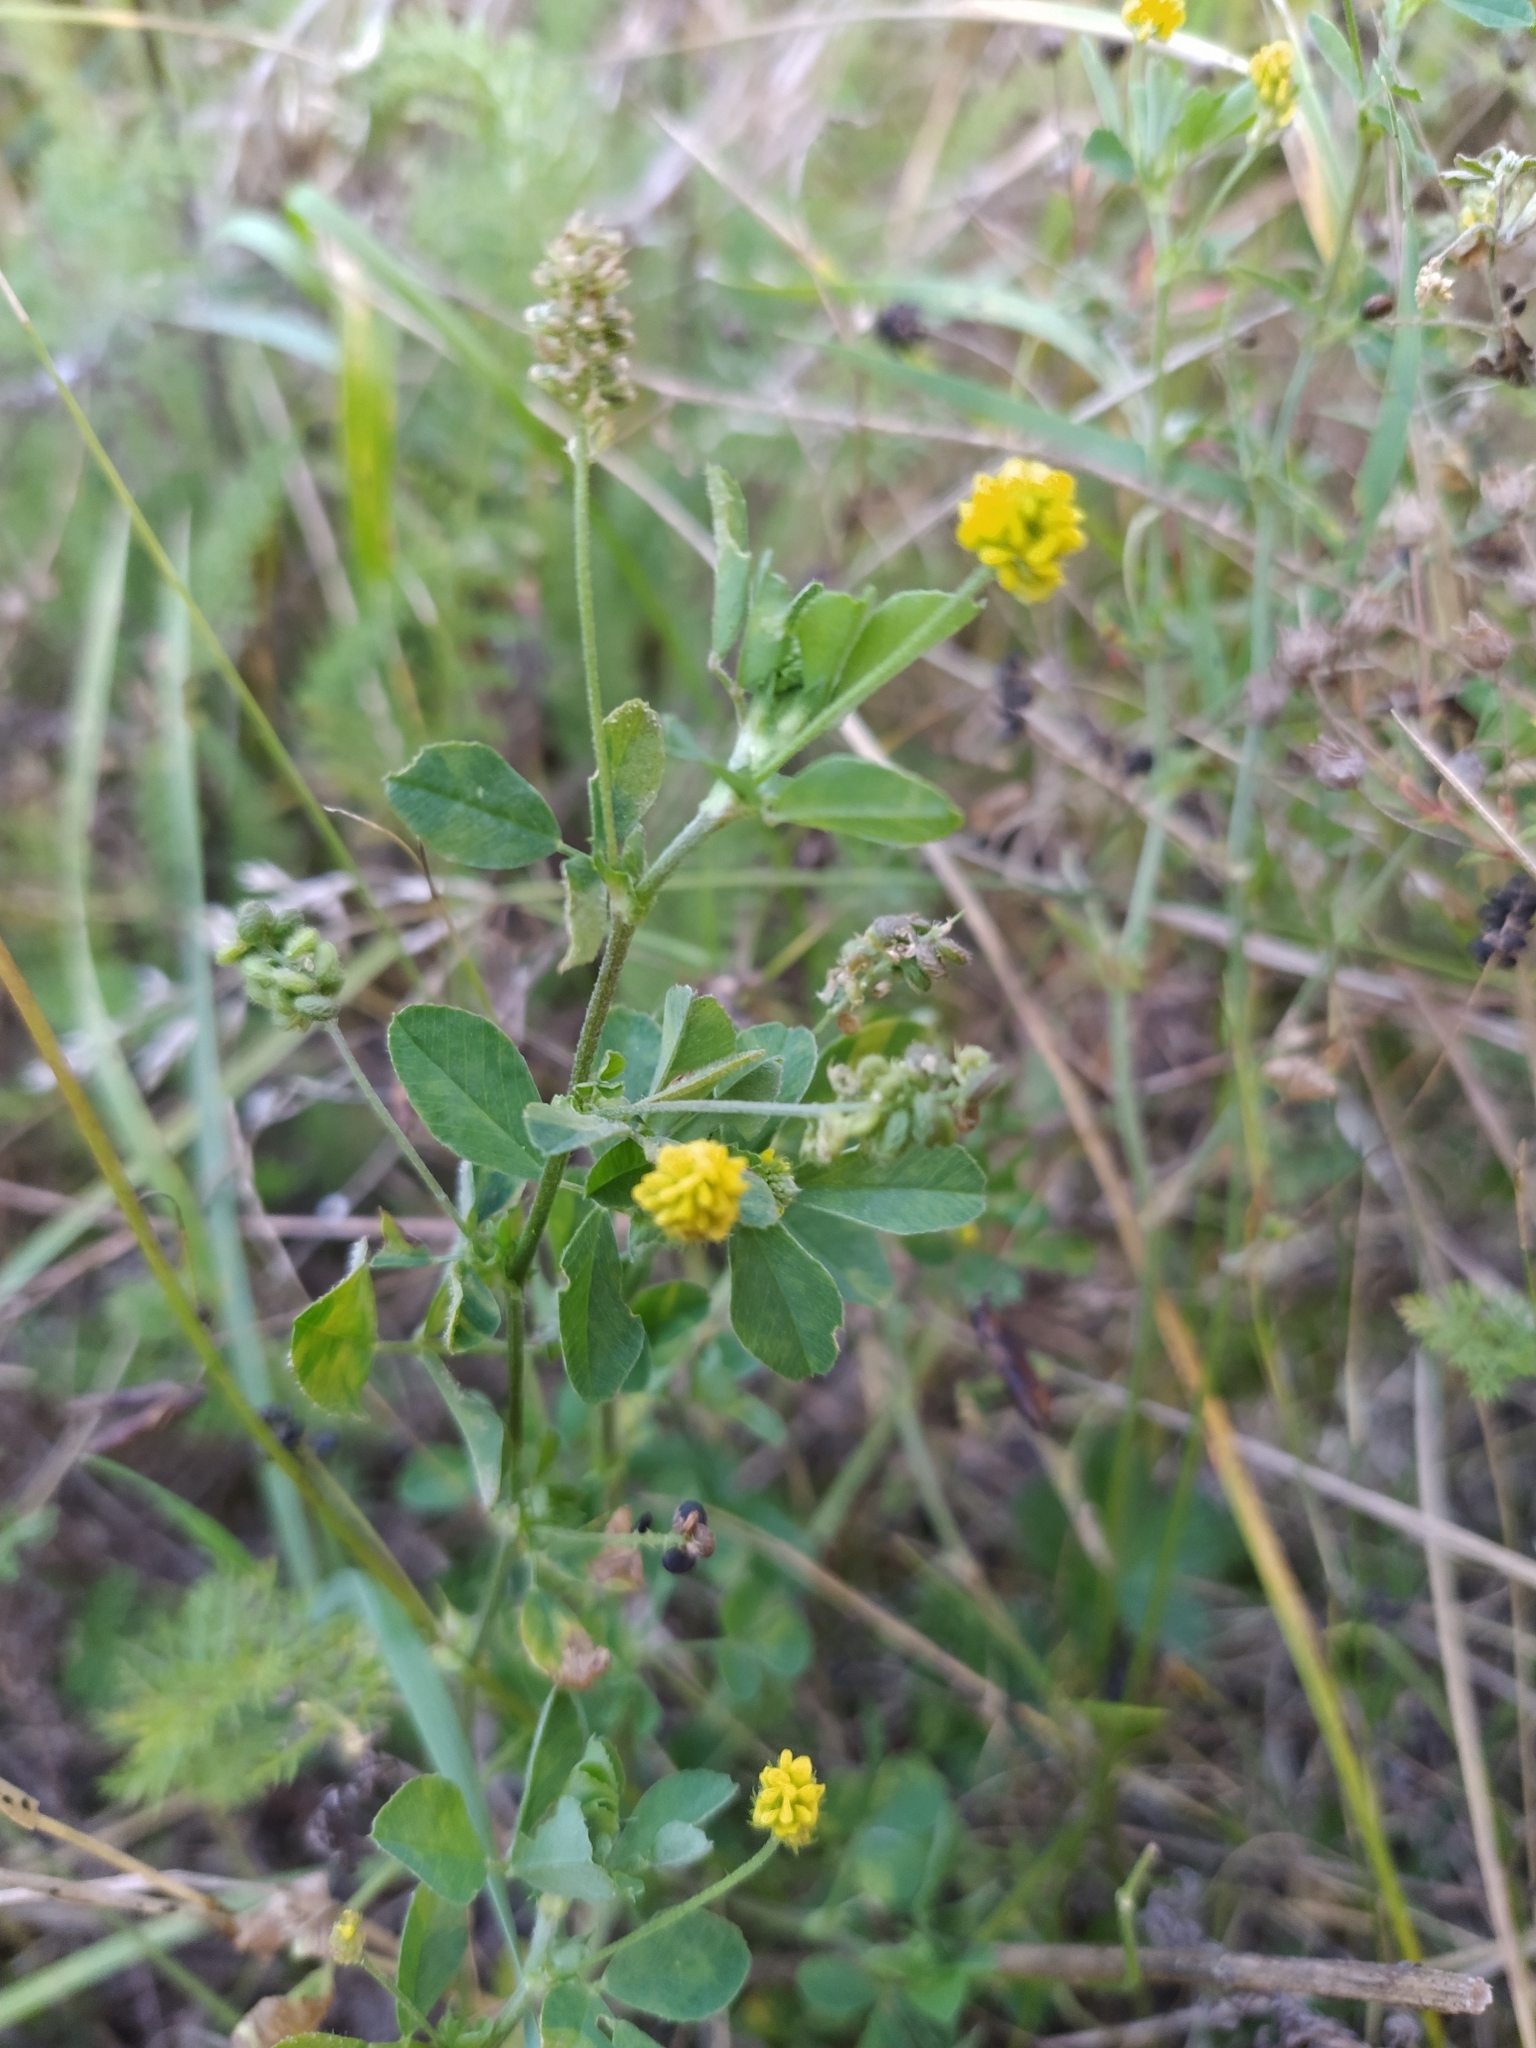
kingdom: Plantae
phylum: Tracheophyta
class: Magnoliopsida
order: Fabales
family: Fabaceae
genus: Medicago
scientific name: Medicago lupulina
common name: Black medick
